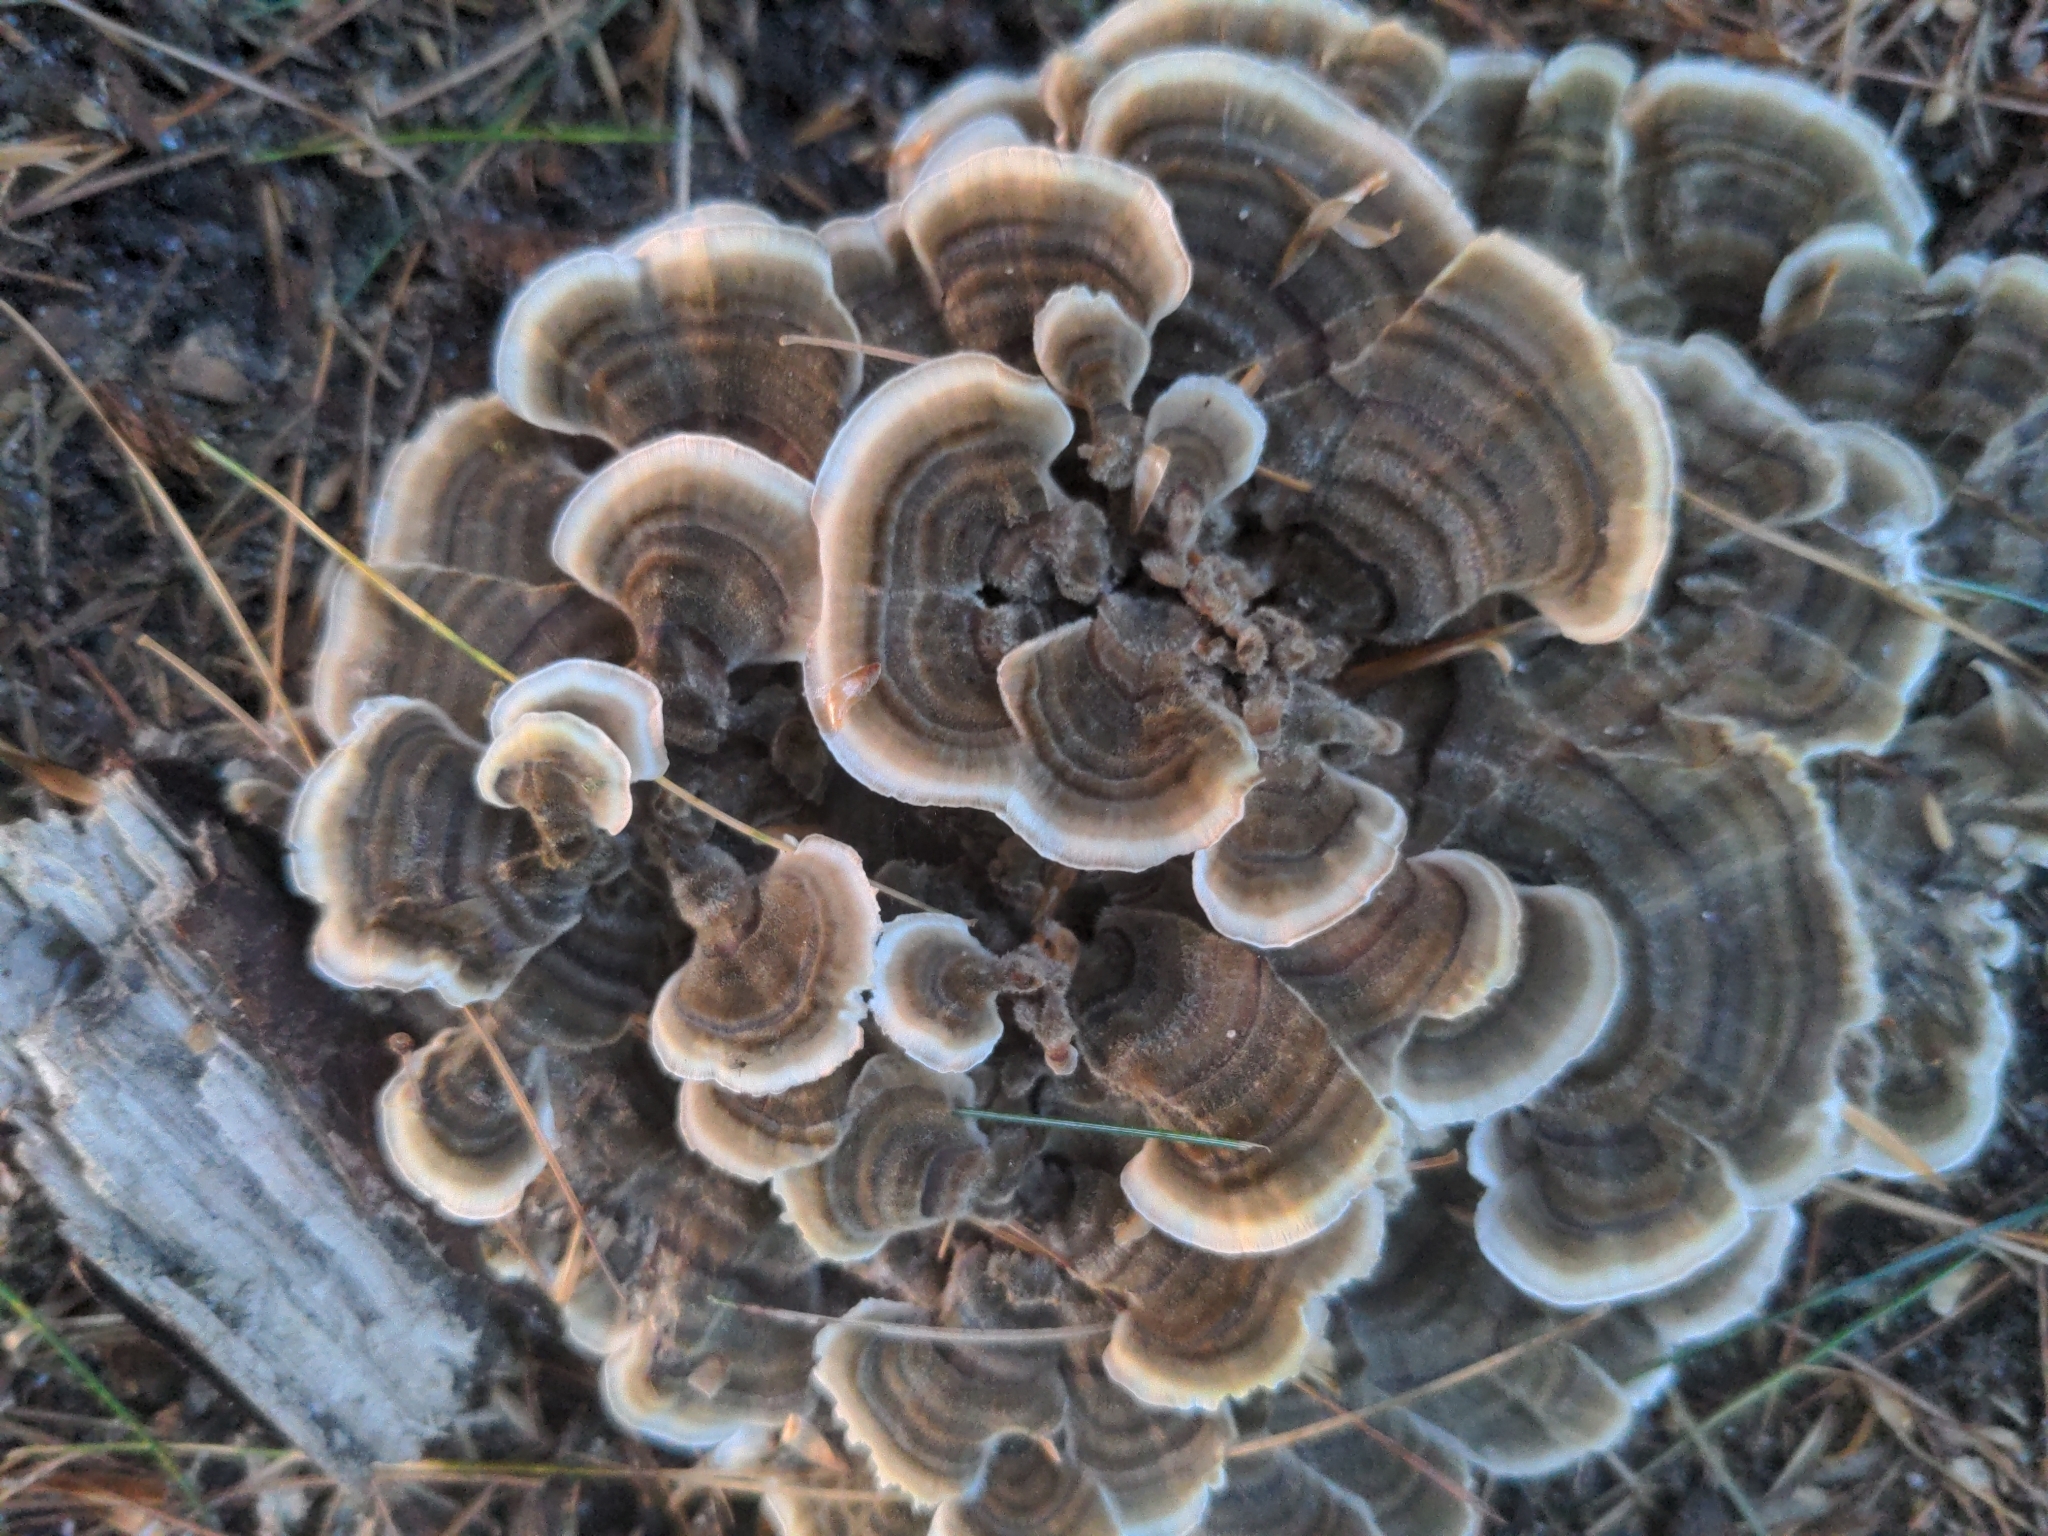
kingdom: Fungi
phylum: Basidiomycota
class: Agaricomycetes
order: Polyporales
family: Polyporaceae
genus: Trametes
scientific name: Trametes versicolor
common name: Turkeytail
